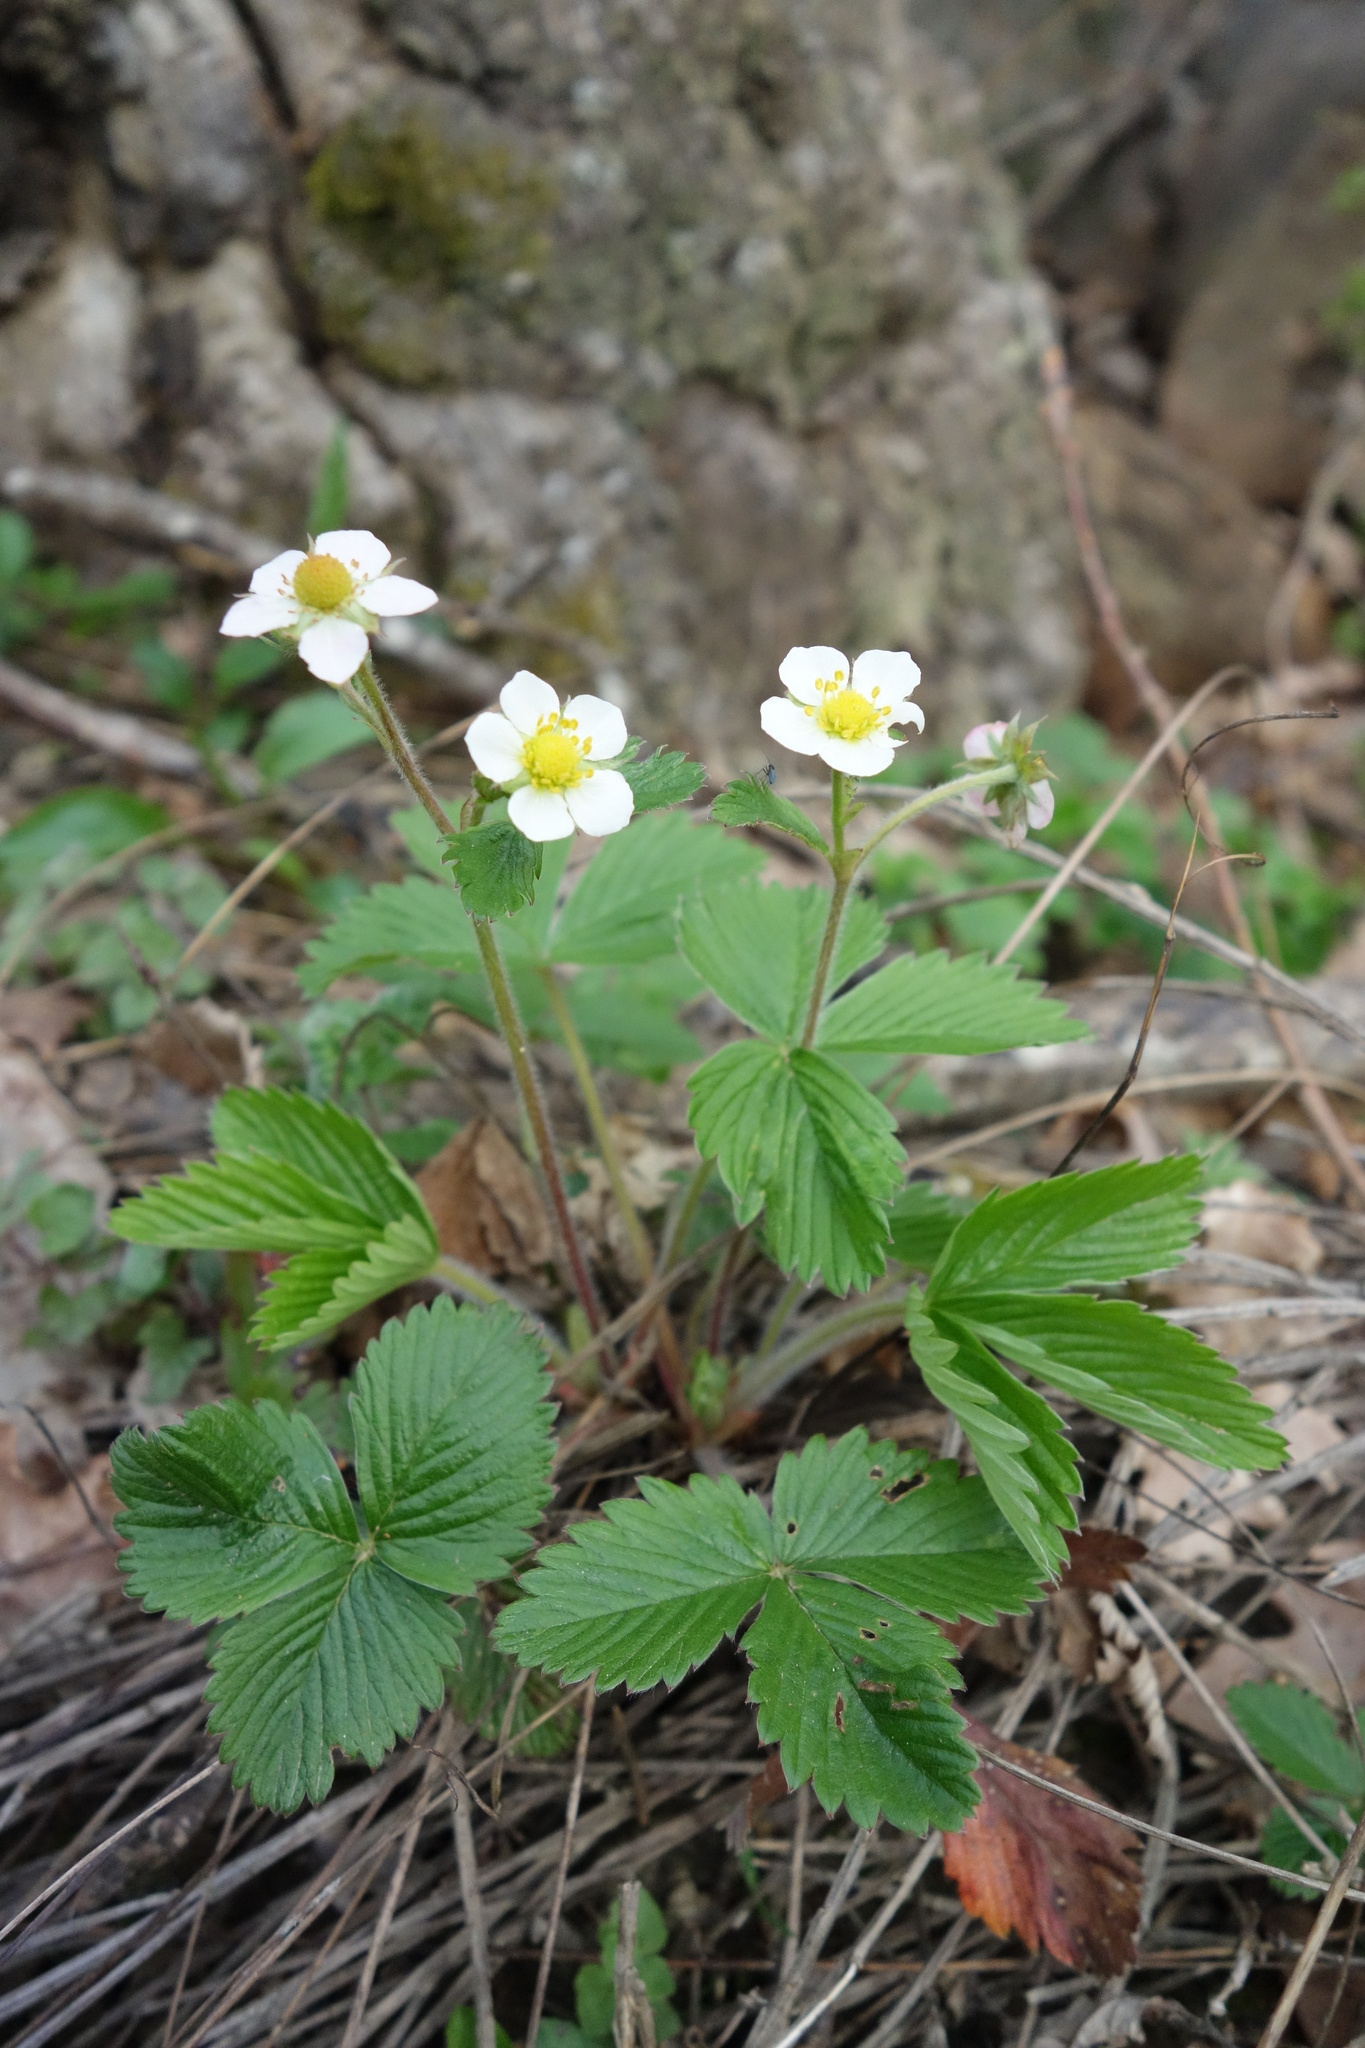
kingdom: Plantae
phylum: Tracheophyta
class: Magnoliopsida
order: Rosales
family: Rosaceae
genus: Fragaria
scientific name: Fragaria vesca
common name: Wild strawberry
